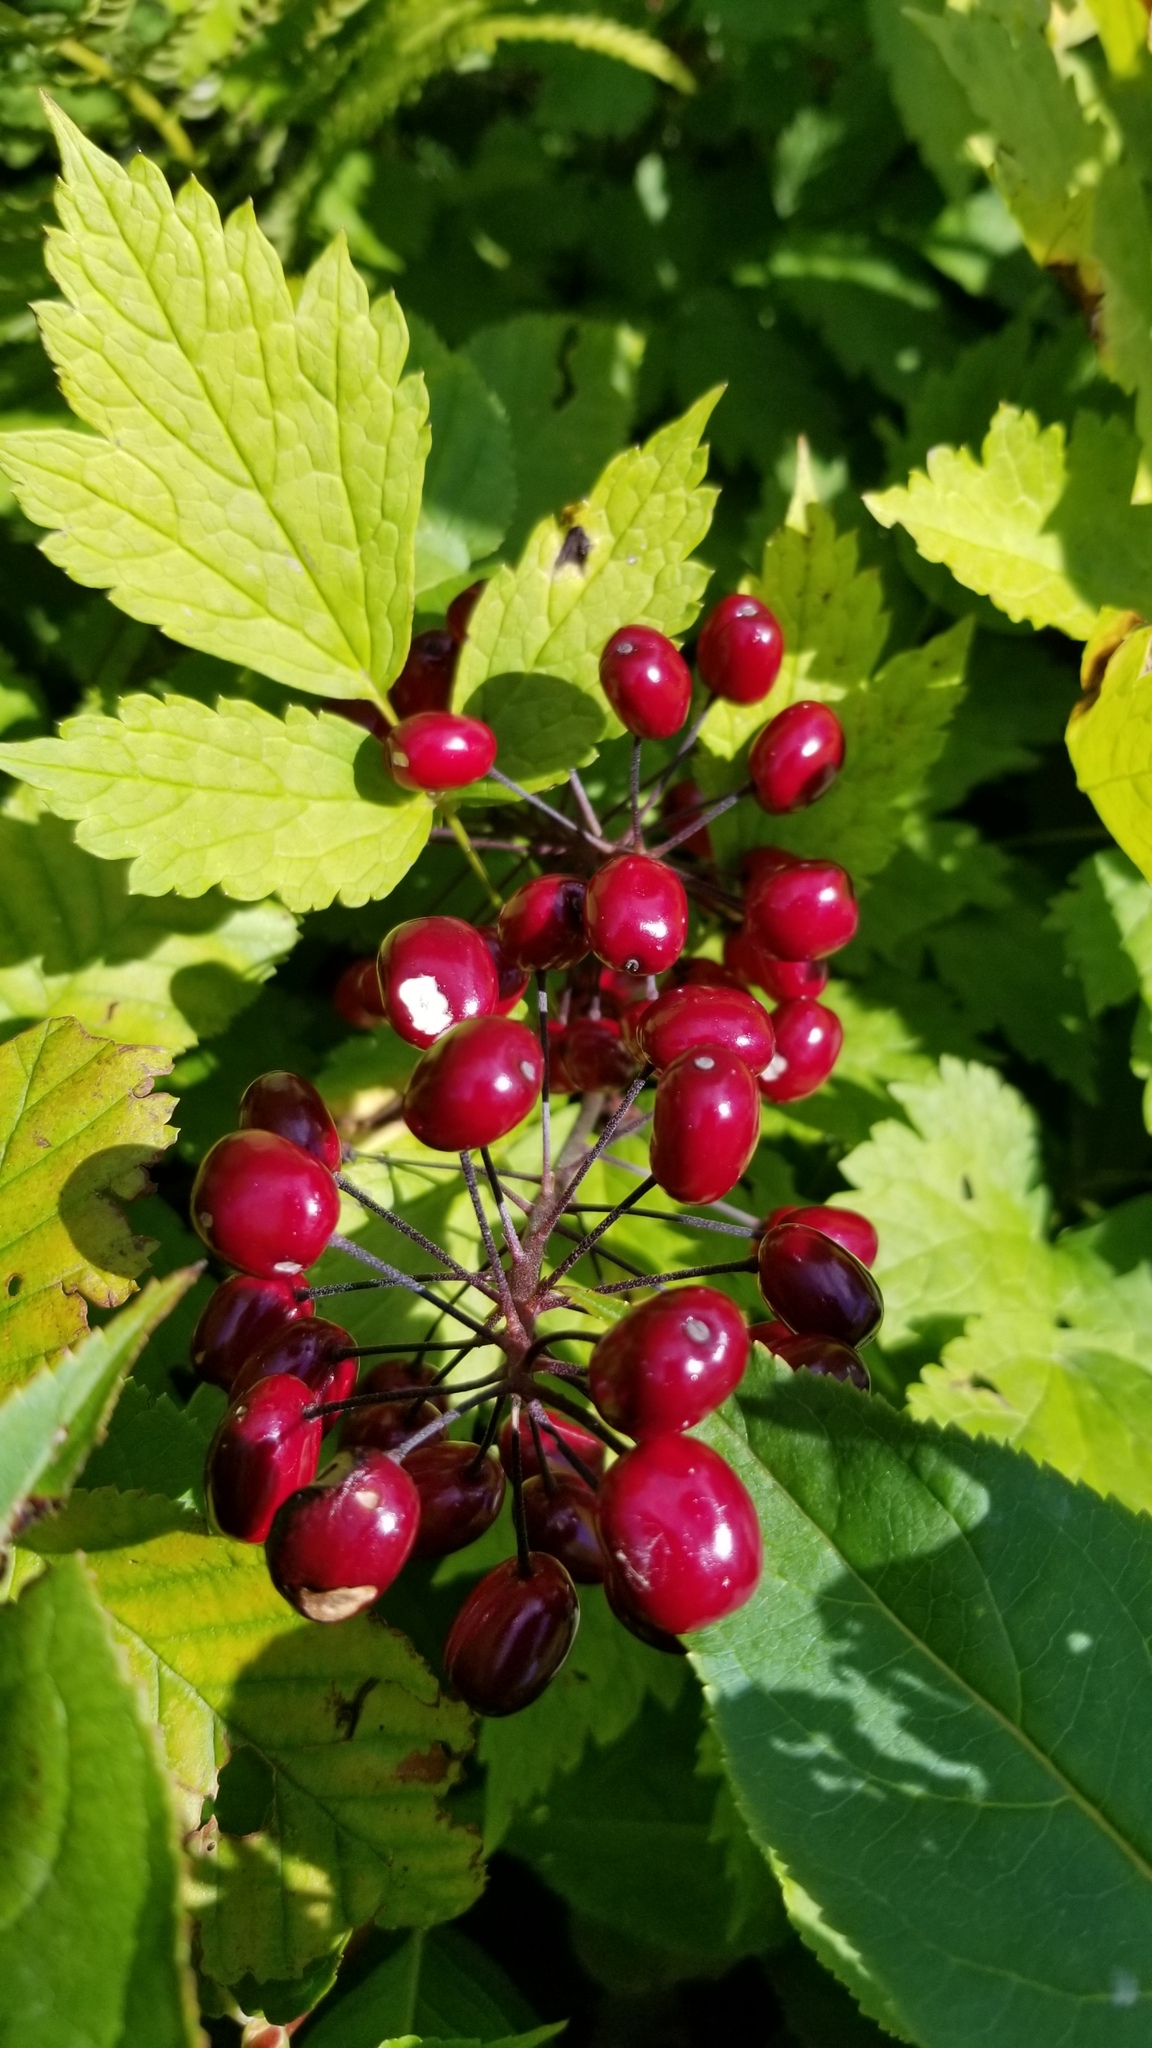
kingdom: Plantae
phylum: Tracheophyta
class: Magnoliopsida
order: Ranunculales
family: Ranunculaceae
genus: Actaea
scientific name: Actaea rubra
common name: Red baneberry
